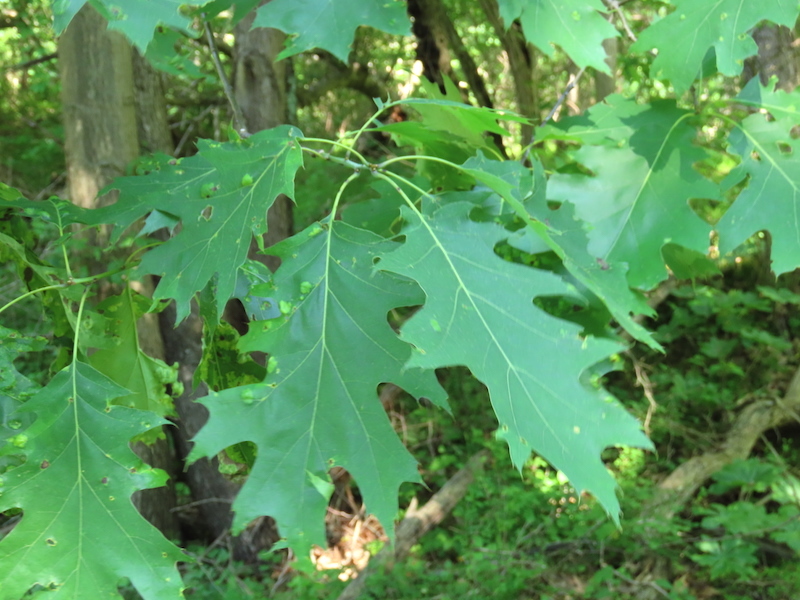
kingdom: Fungi
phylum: Ascomycota
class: Taphrinomycetes
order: Taphrinales
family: Taphrinaceae
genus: Taphrina
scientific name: Taphrina caerulescens
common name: Oak leaf blister
